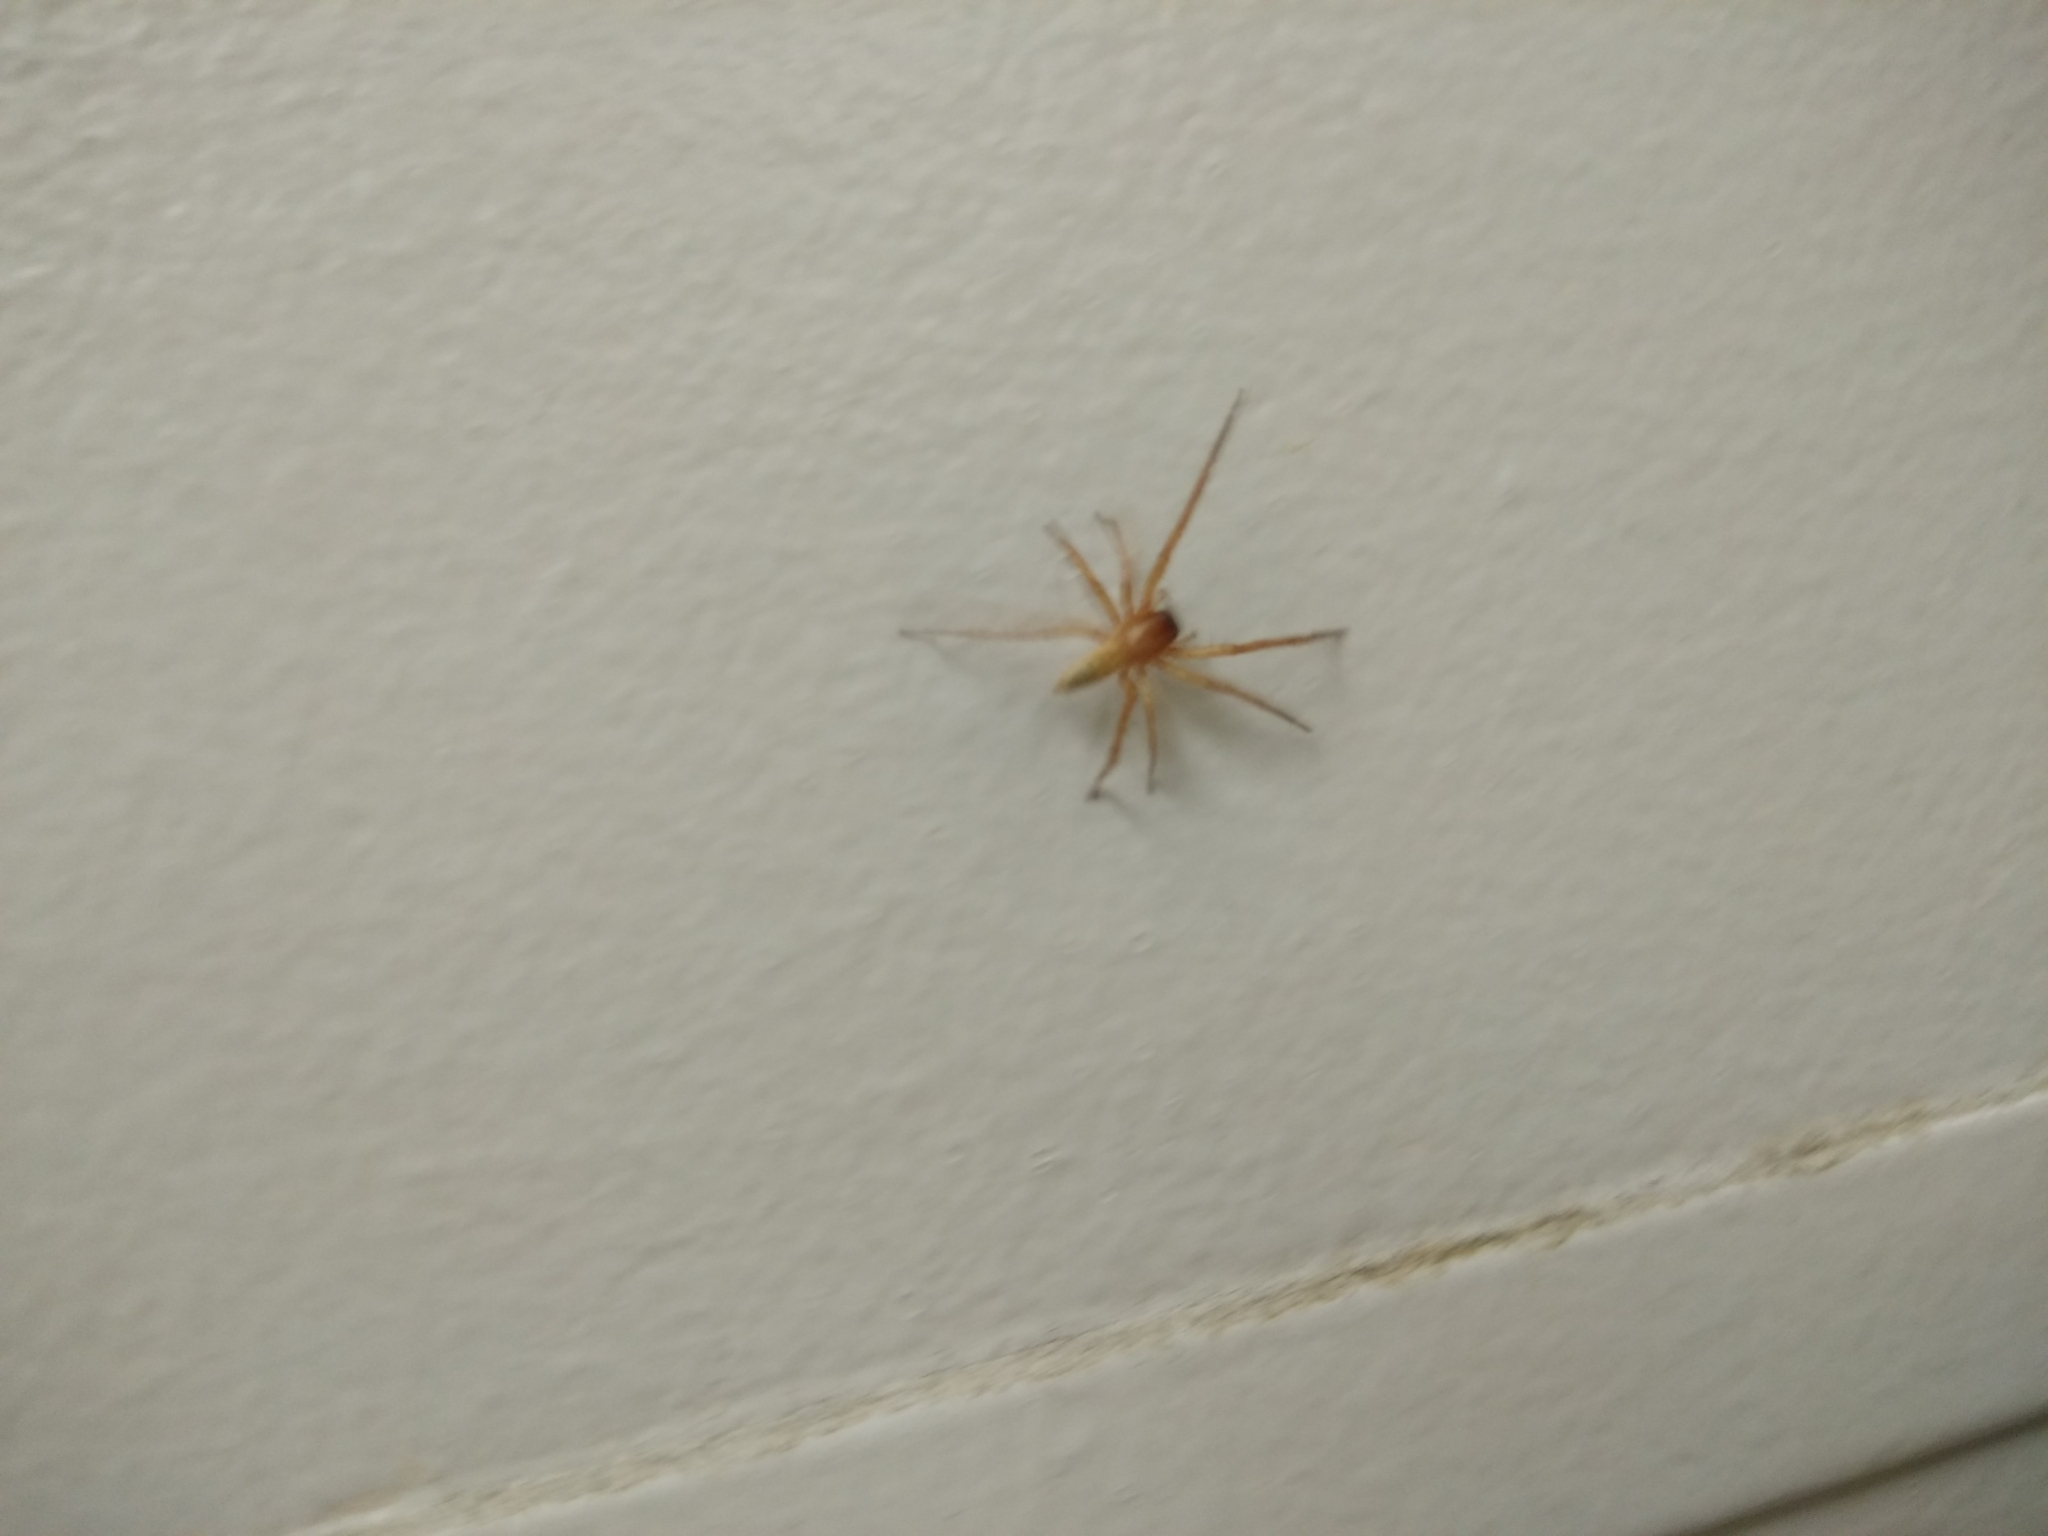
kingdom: Animalia
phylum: Arthropoda
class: Arachnida
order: Araneae
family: Anyphaenidae
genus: Hibana
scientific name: Hibana velox
